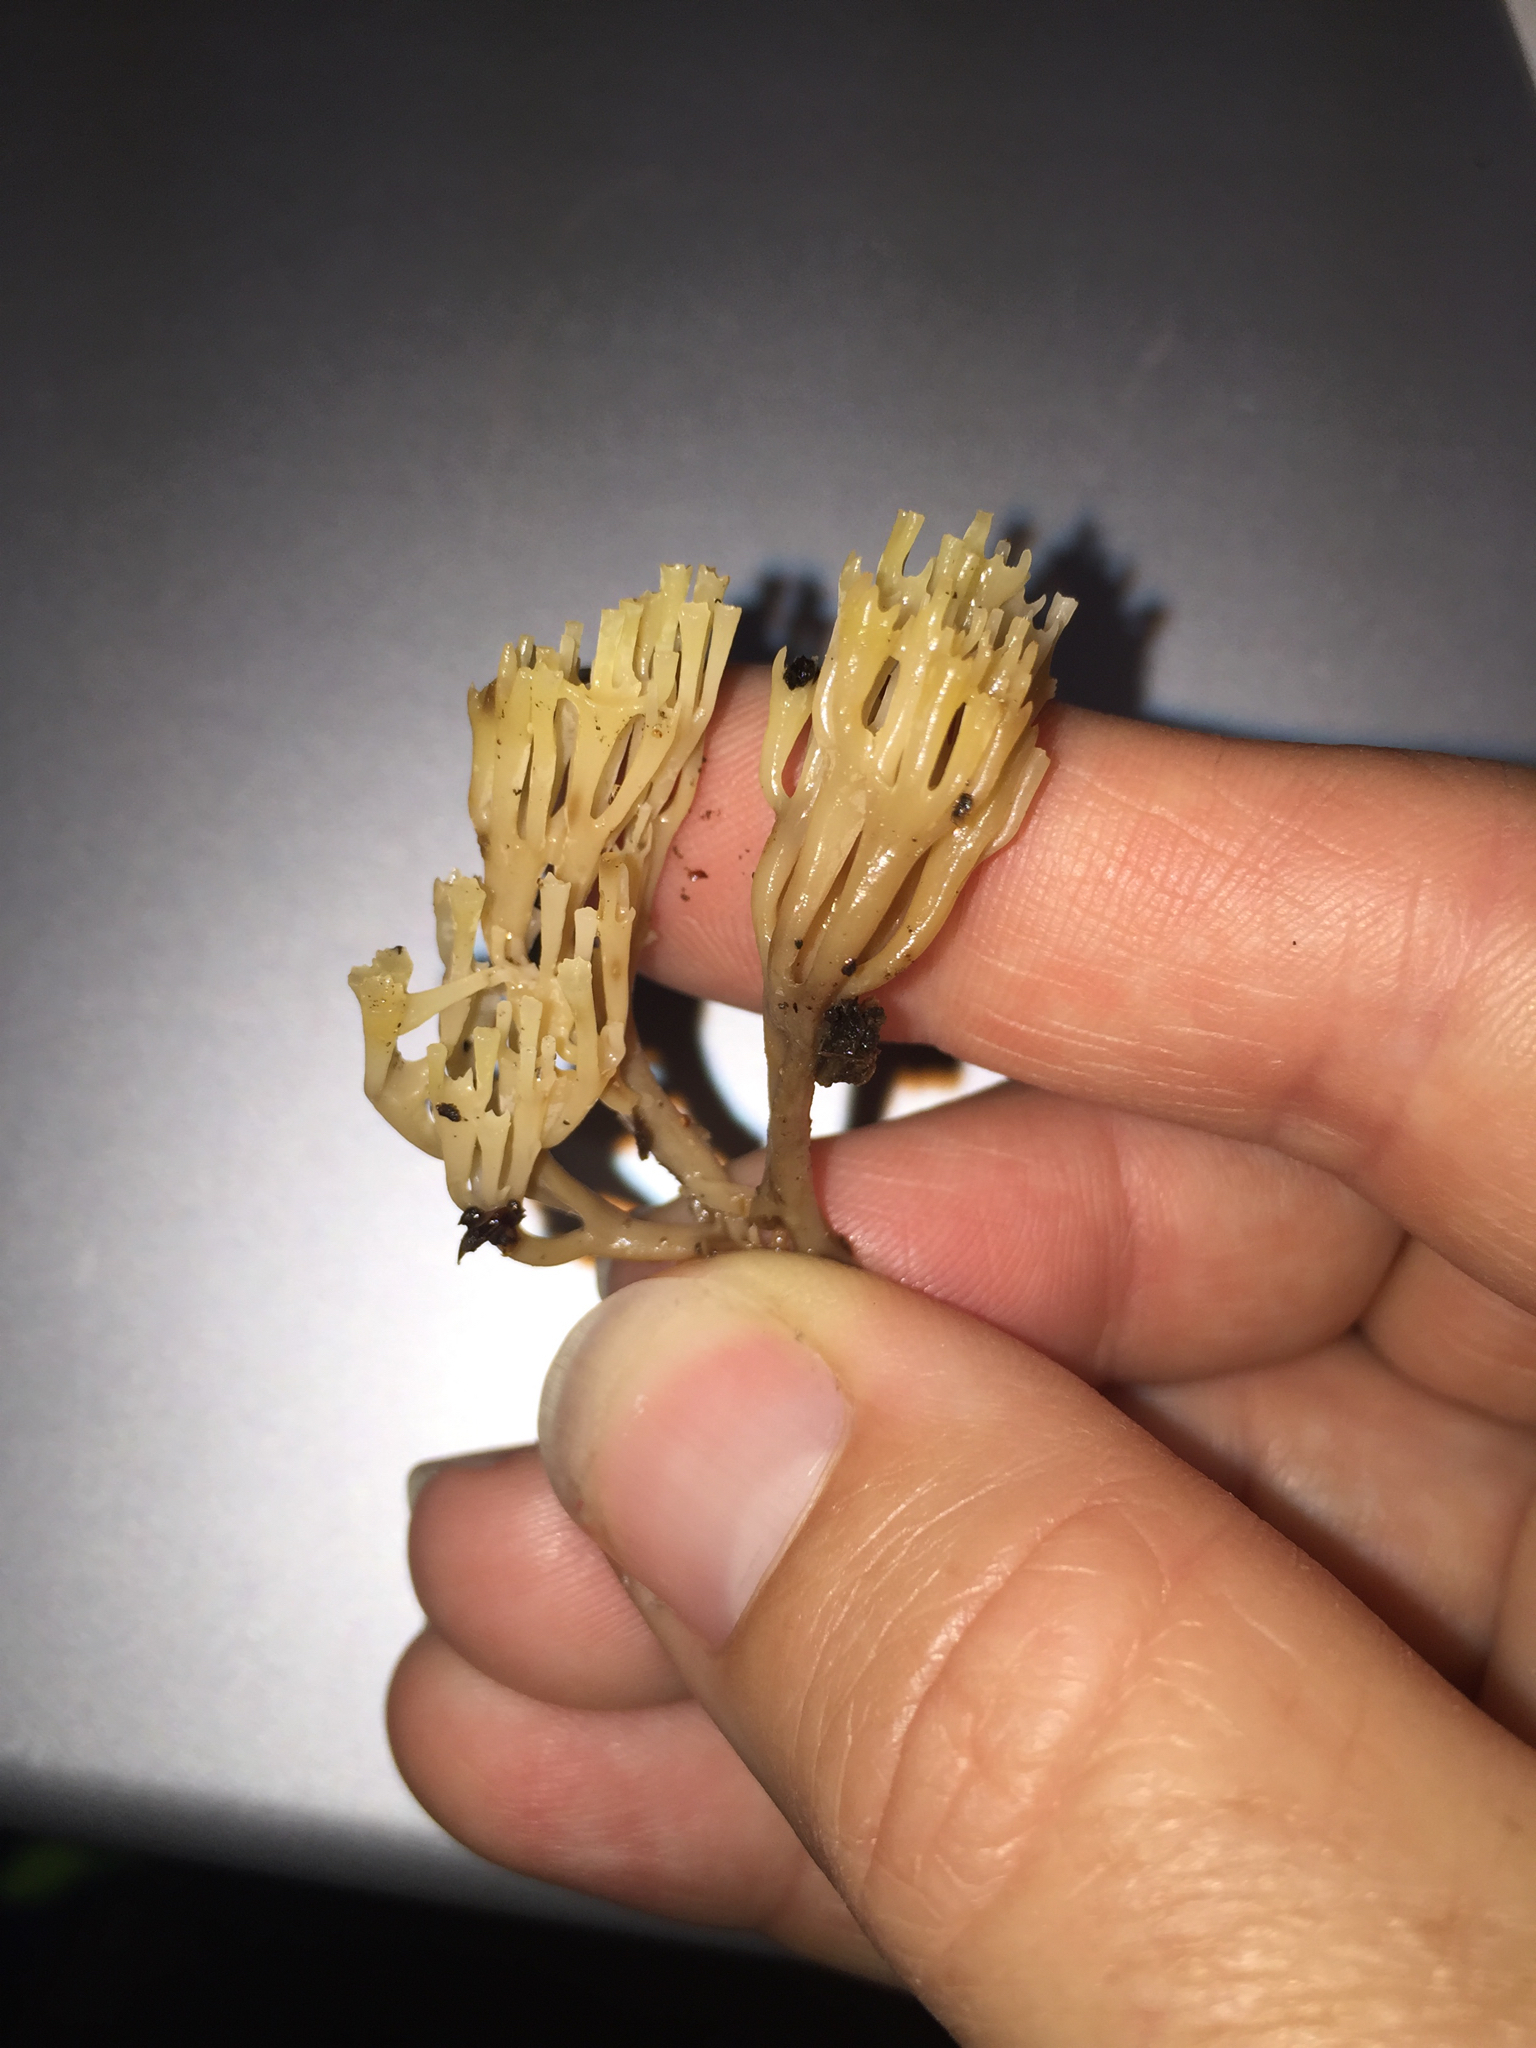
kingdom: Fungi
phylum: Basidiomycota
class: Agaricomycetes
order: Russulales
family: Auriscalpiaceae
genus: Artomyces
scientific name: Artomyces pyxidatus
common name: Crown-tipped coral fungus
